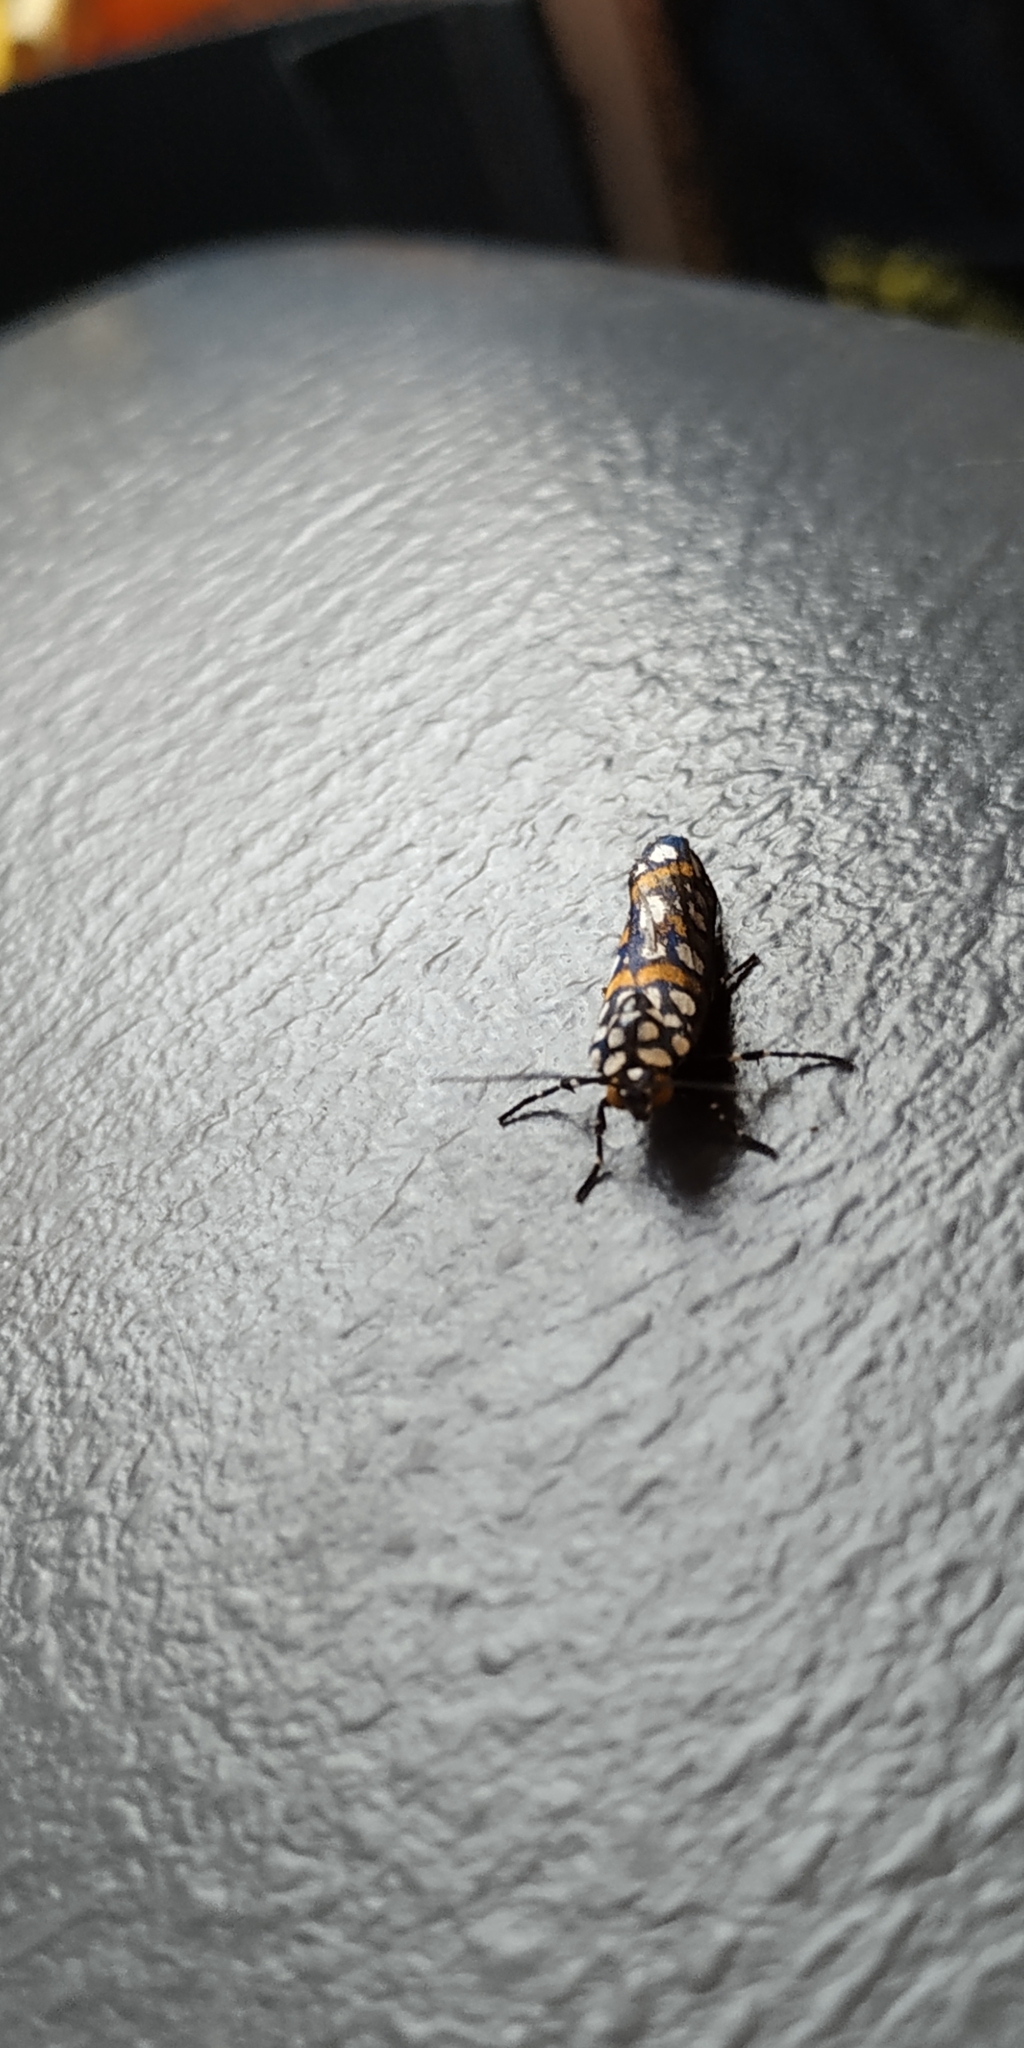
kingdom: Animalia
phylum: Arthropoda
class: Insecta
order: Lepidoptera
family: Noctuidae
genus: Cydosia
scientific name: Cydosia curvinella
